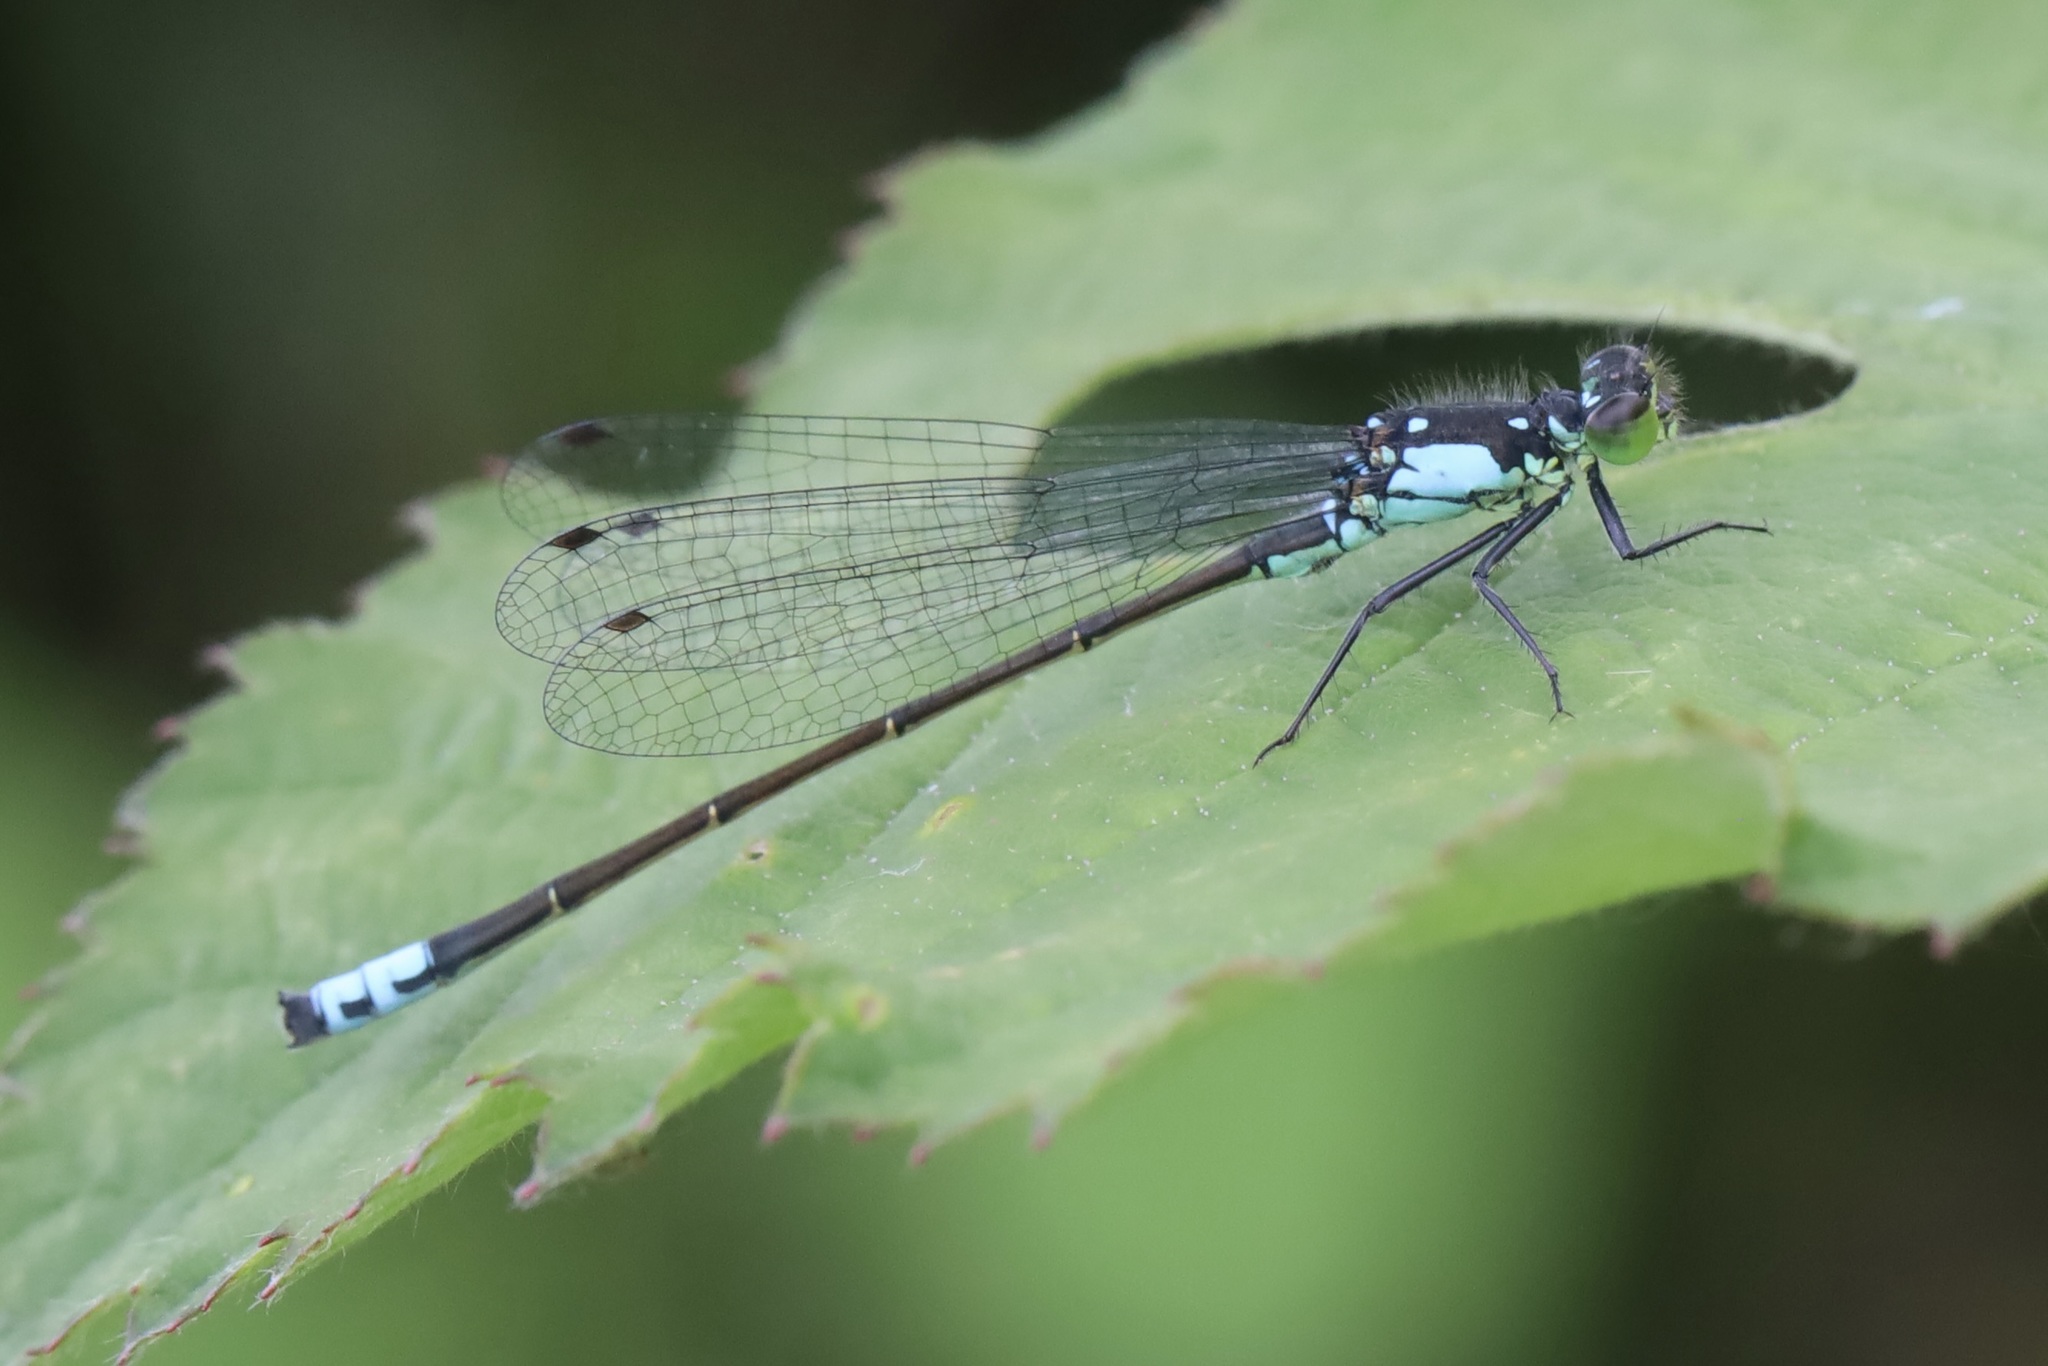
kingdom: Animalia
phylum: Arthropoda
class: Insecta
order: Odonata
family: Coenagrionidae
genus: Ischnura
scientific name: Ischnura cervula
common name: Pacific forktail
